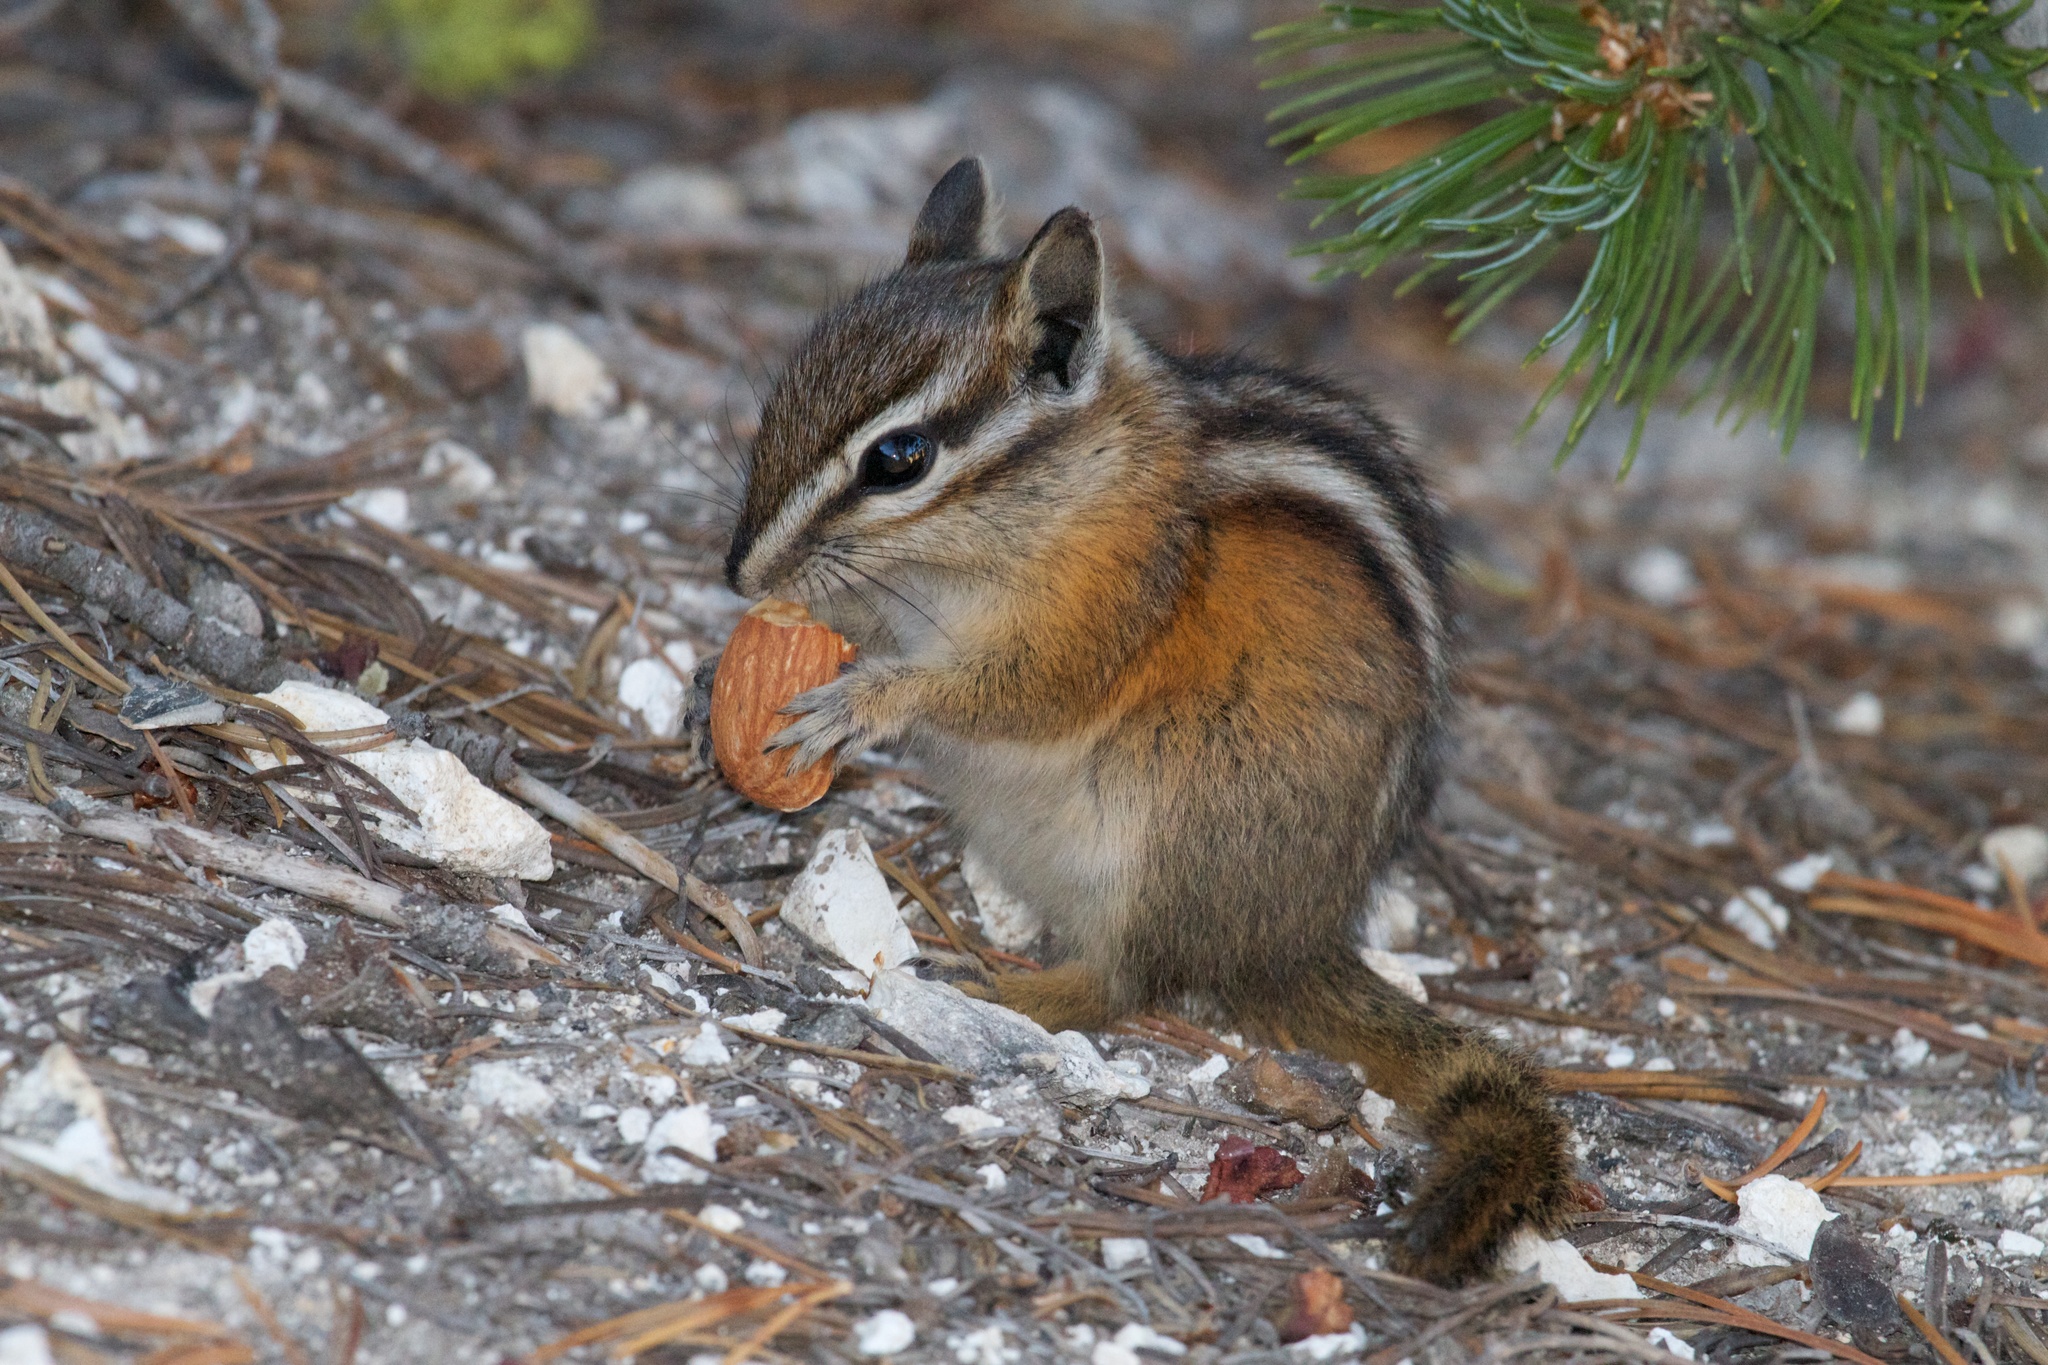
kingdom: Animalia
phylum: Chordata
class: Mammalia
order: Rodentia
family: Sciuridae
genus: Tamias
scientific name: Tamias minimus
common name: Least chipmunk
